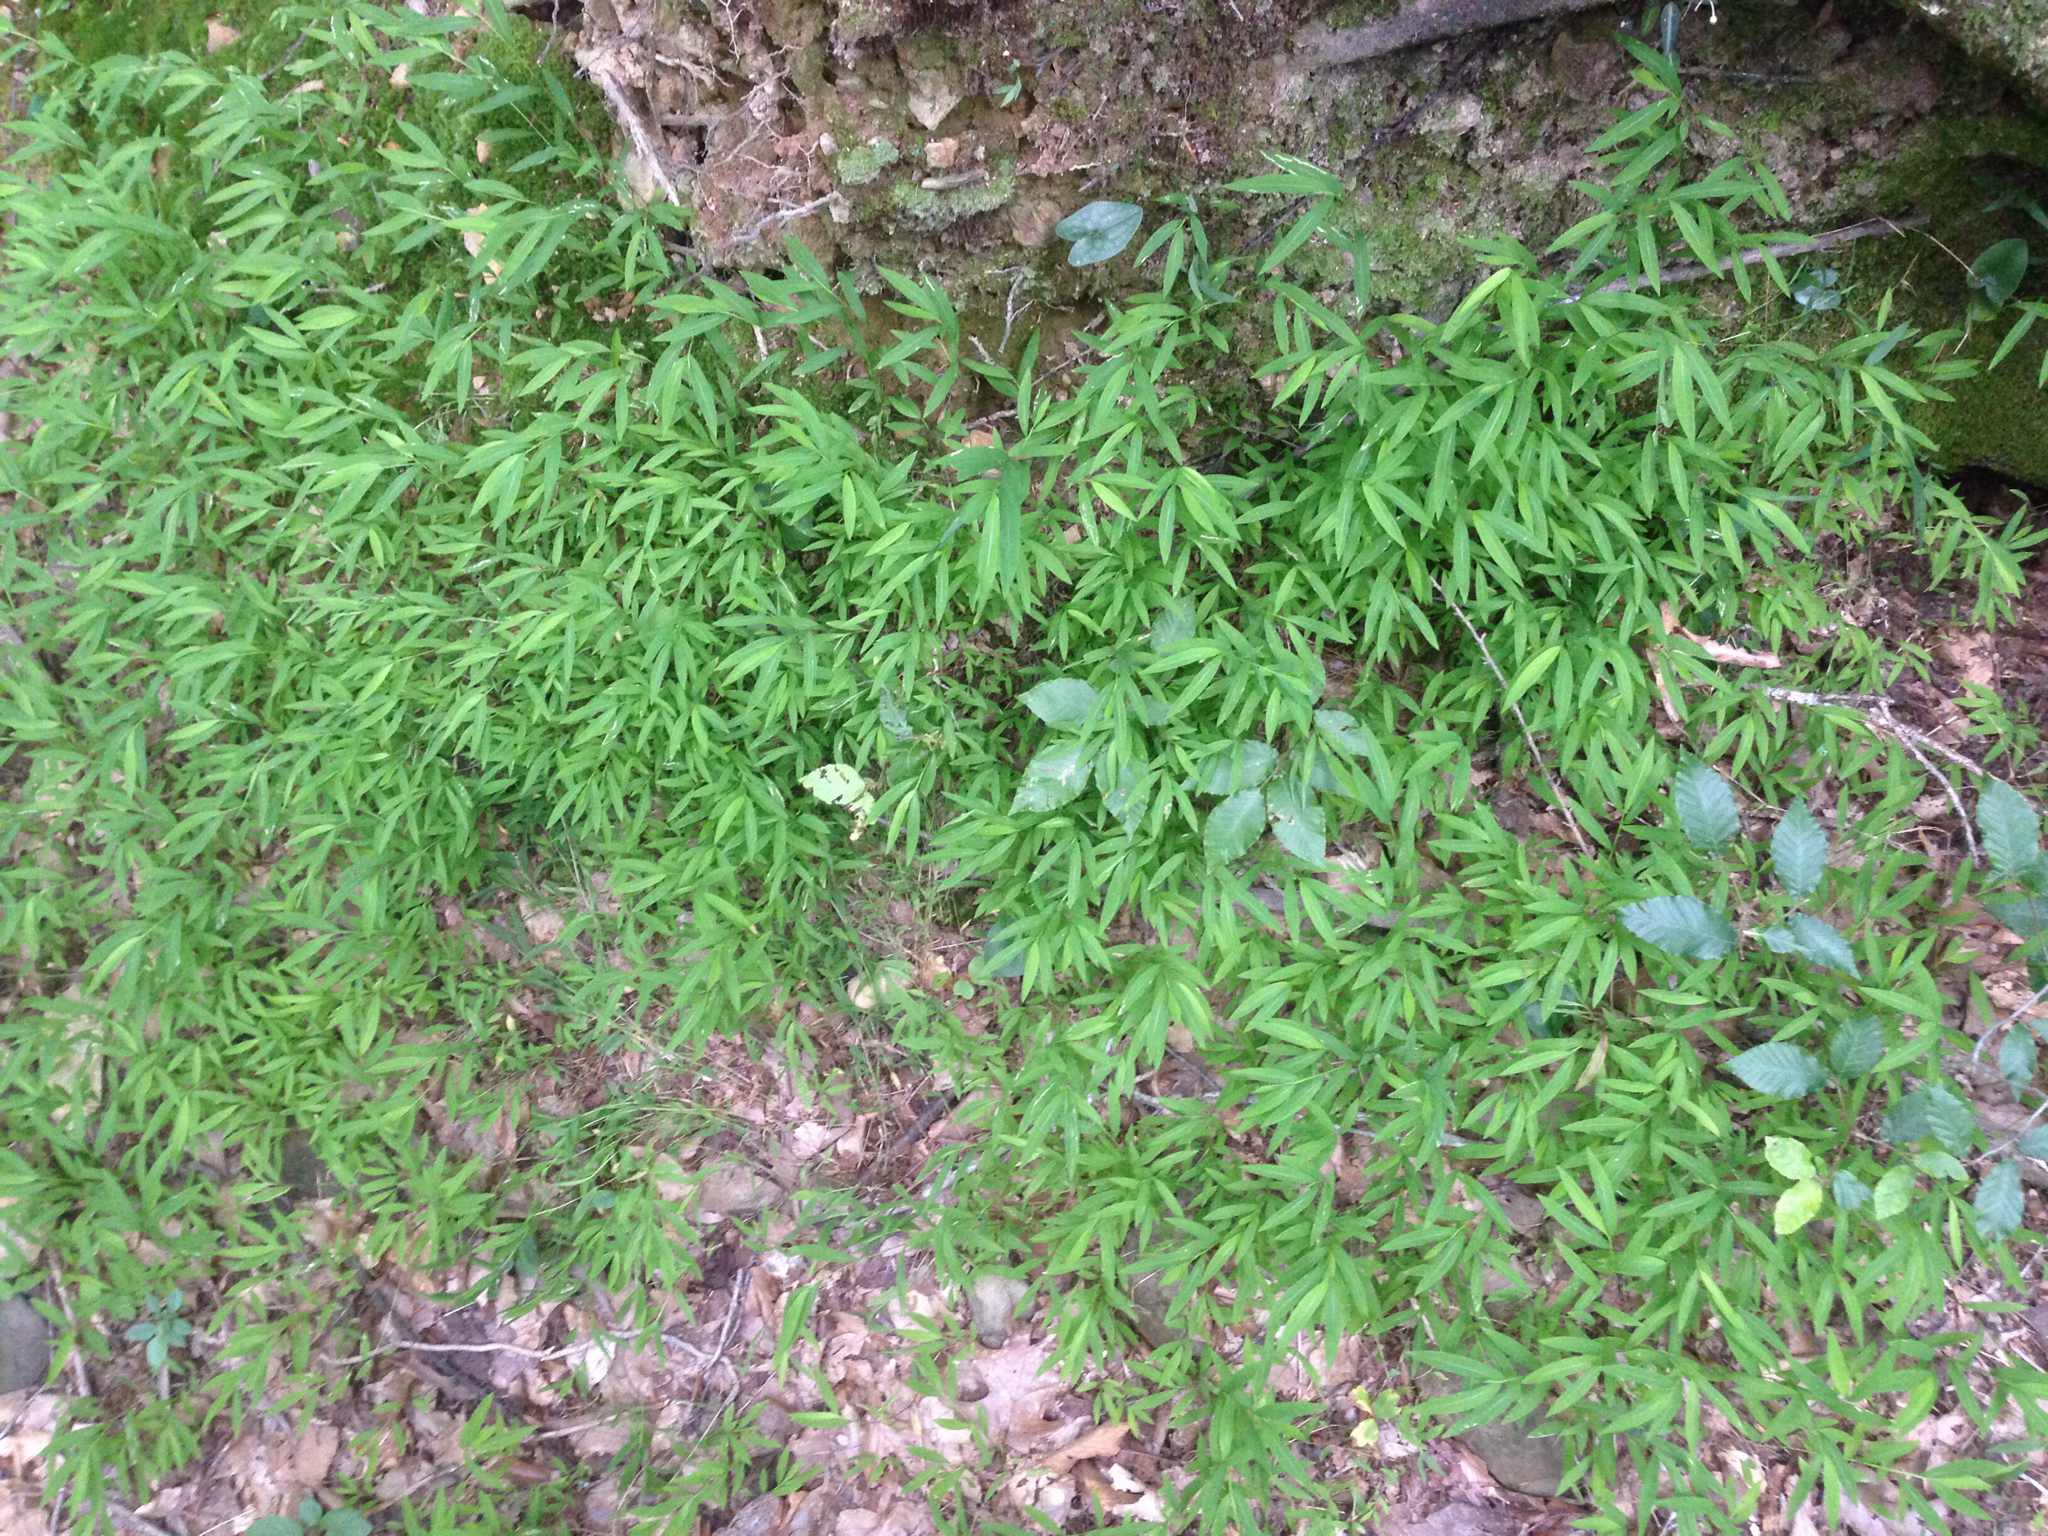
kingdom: Plantae
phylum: Tracheophyta
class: Liliopsida
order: Poales
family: Poaceae
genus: Microstegium
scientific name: Microstegium vimineum
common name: Japanese stiltgrass
